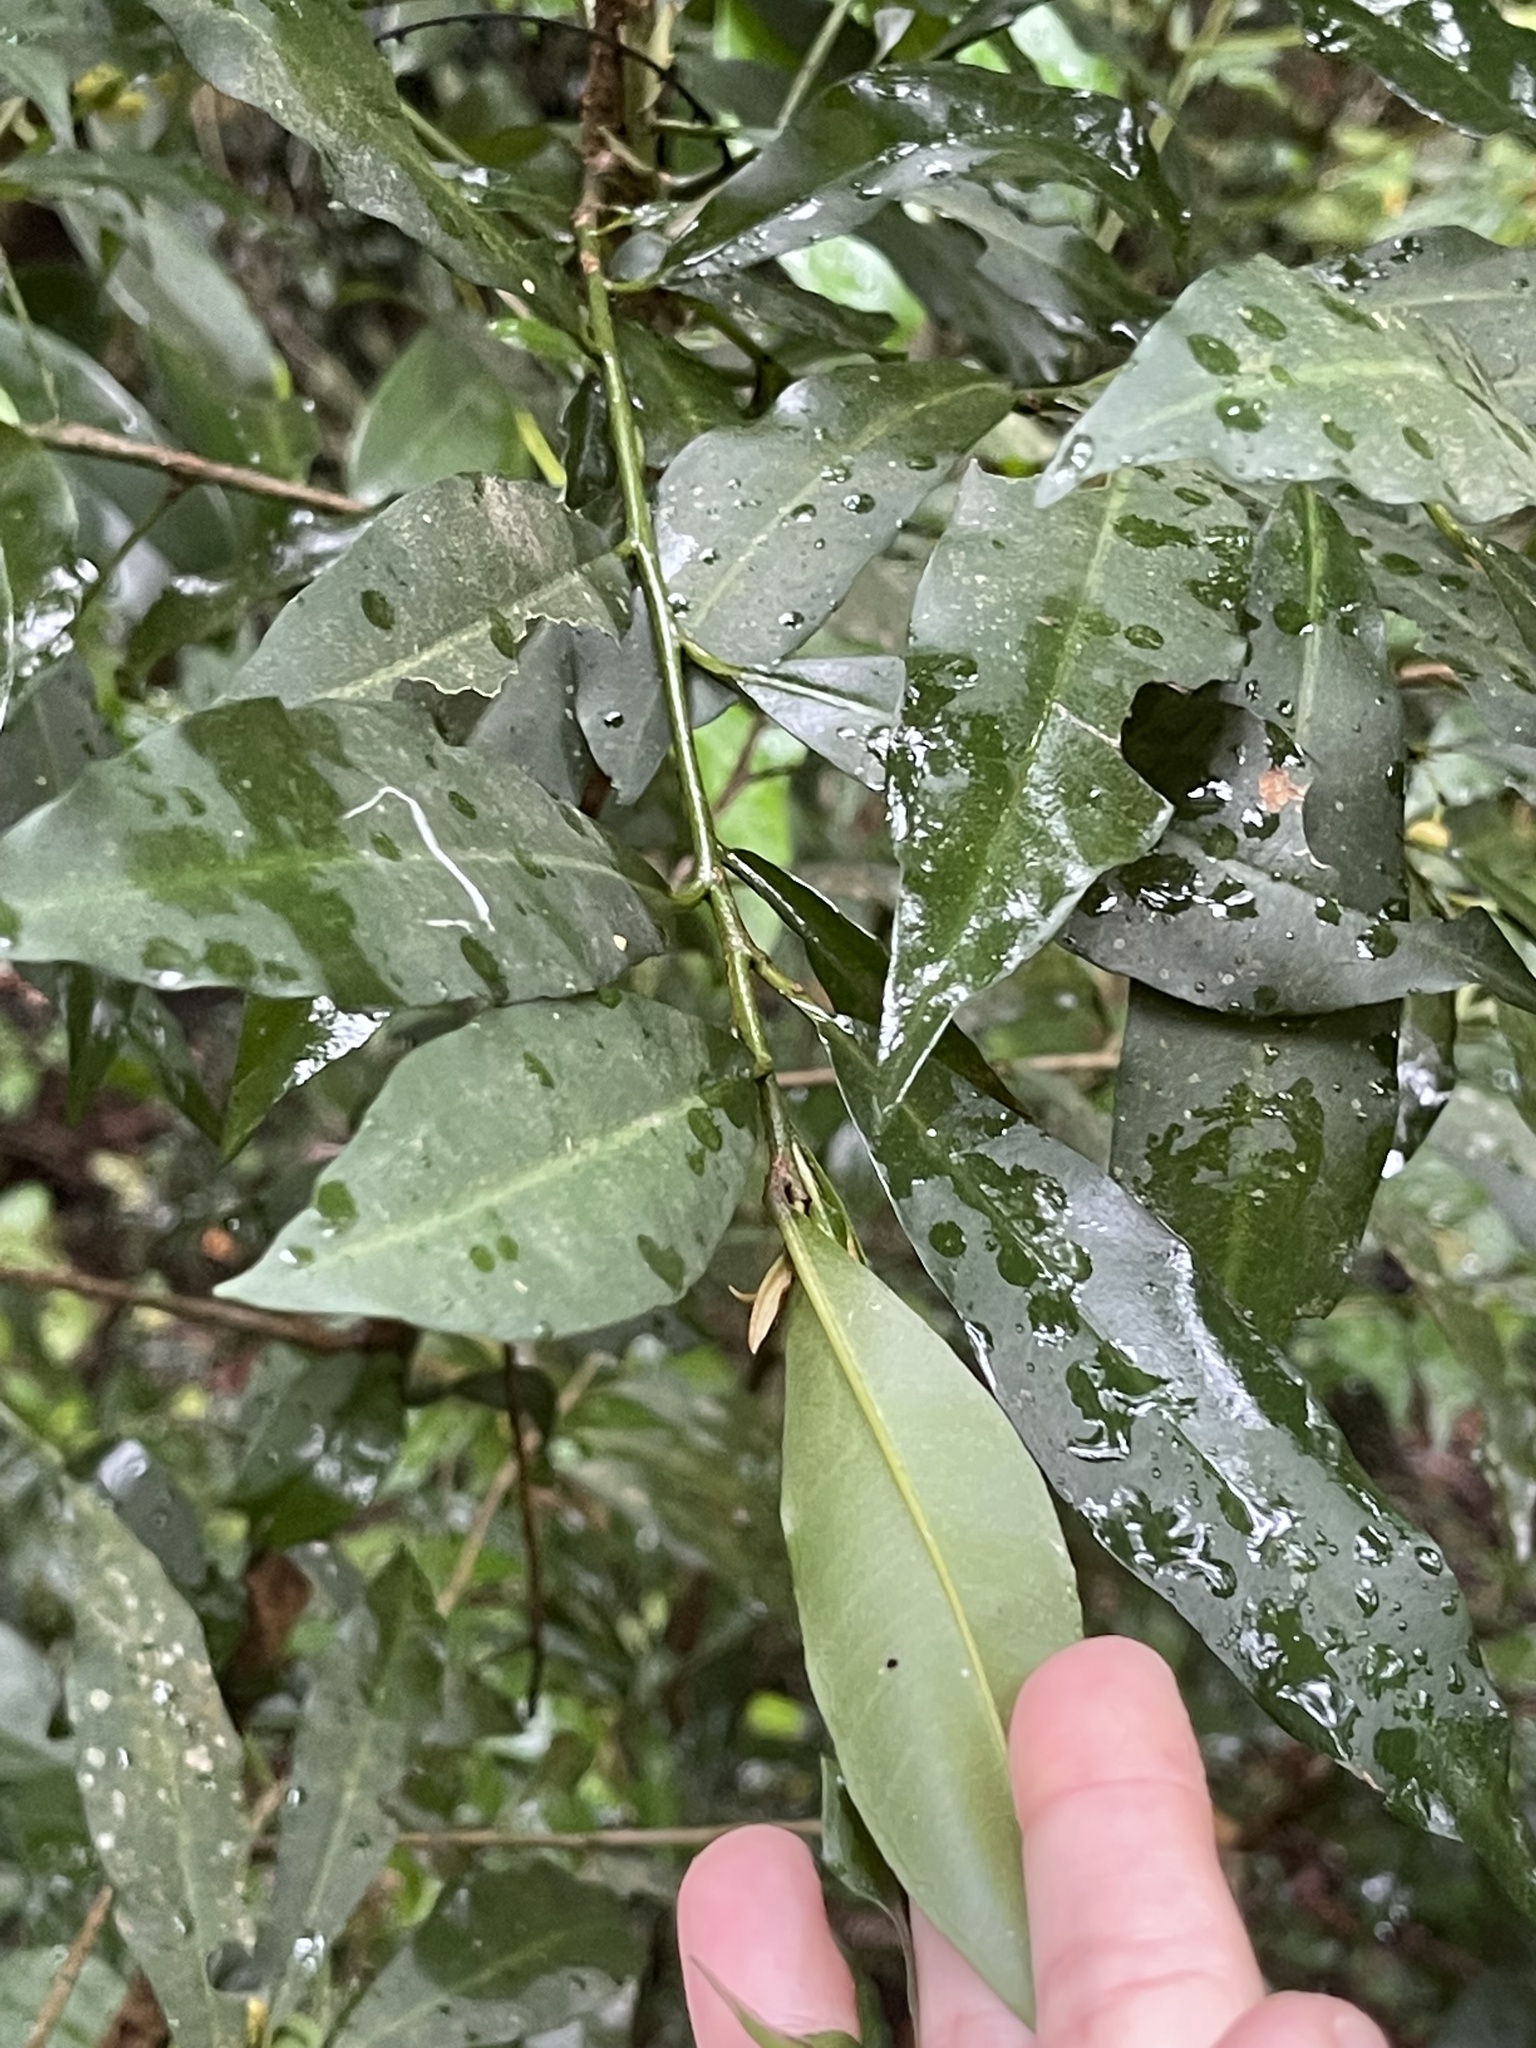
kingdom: Plantae
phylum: Tracheophyta
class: Magnoliopsida
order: Ericales
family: Primulaceae
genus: Ardisia
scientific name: Ardisia quinquegona
